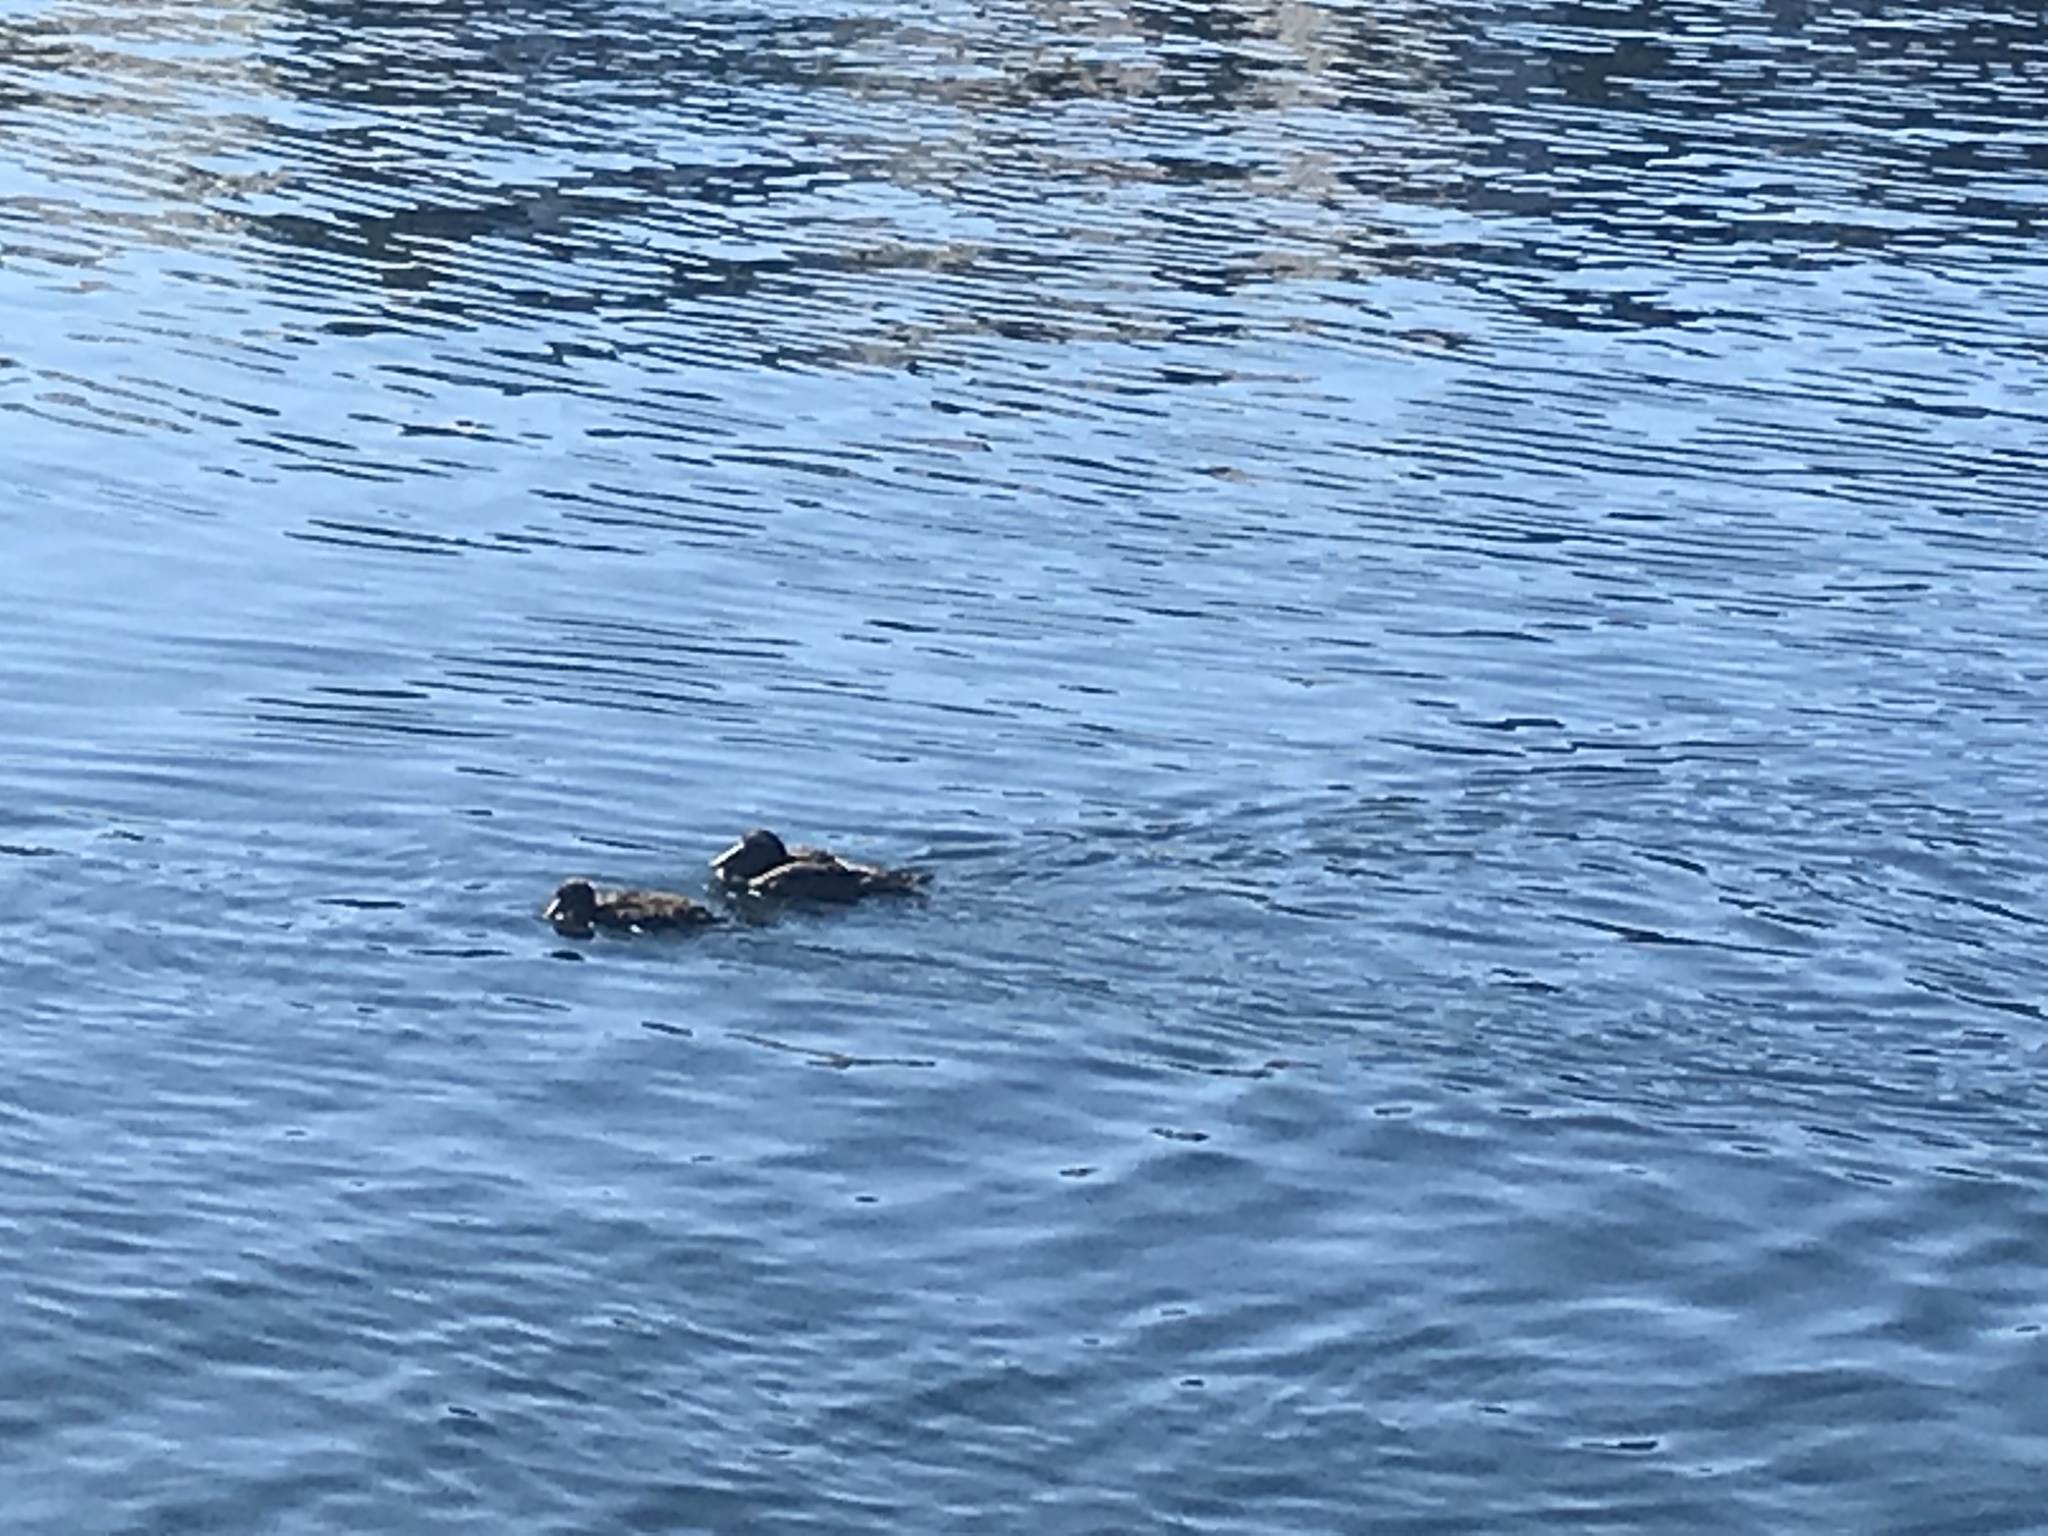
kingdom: Animalia
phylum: Chordata
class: Aves
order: Anseriformes
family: Anatidae
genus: Somateria
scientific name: Somateria mollissima
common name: Common eider
